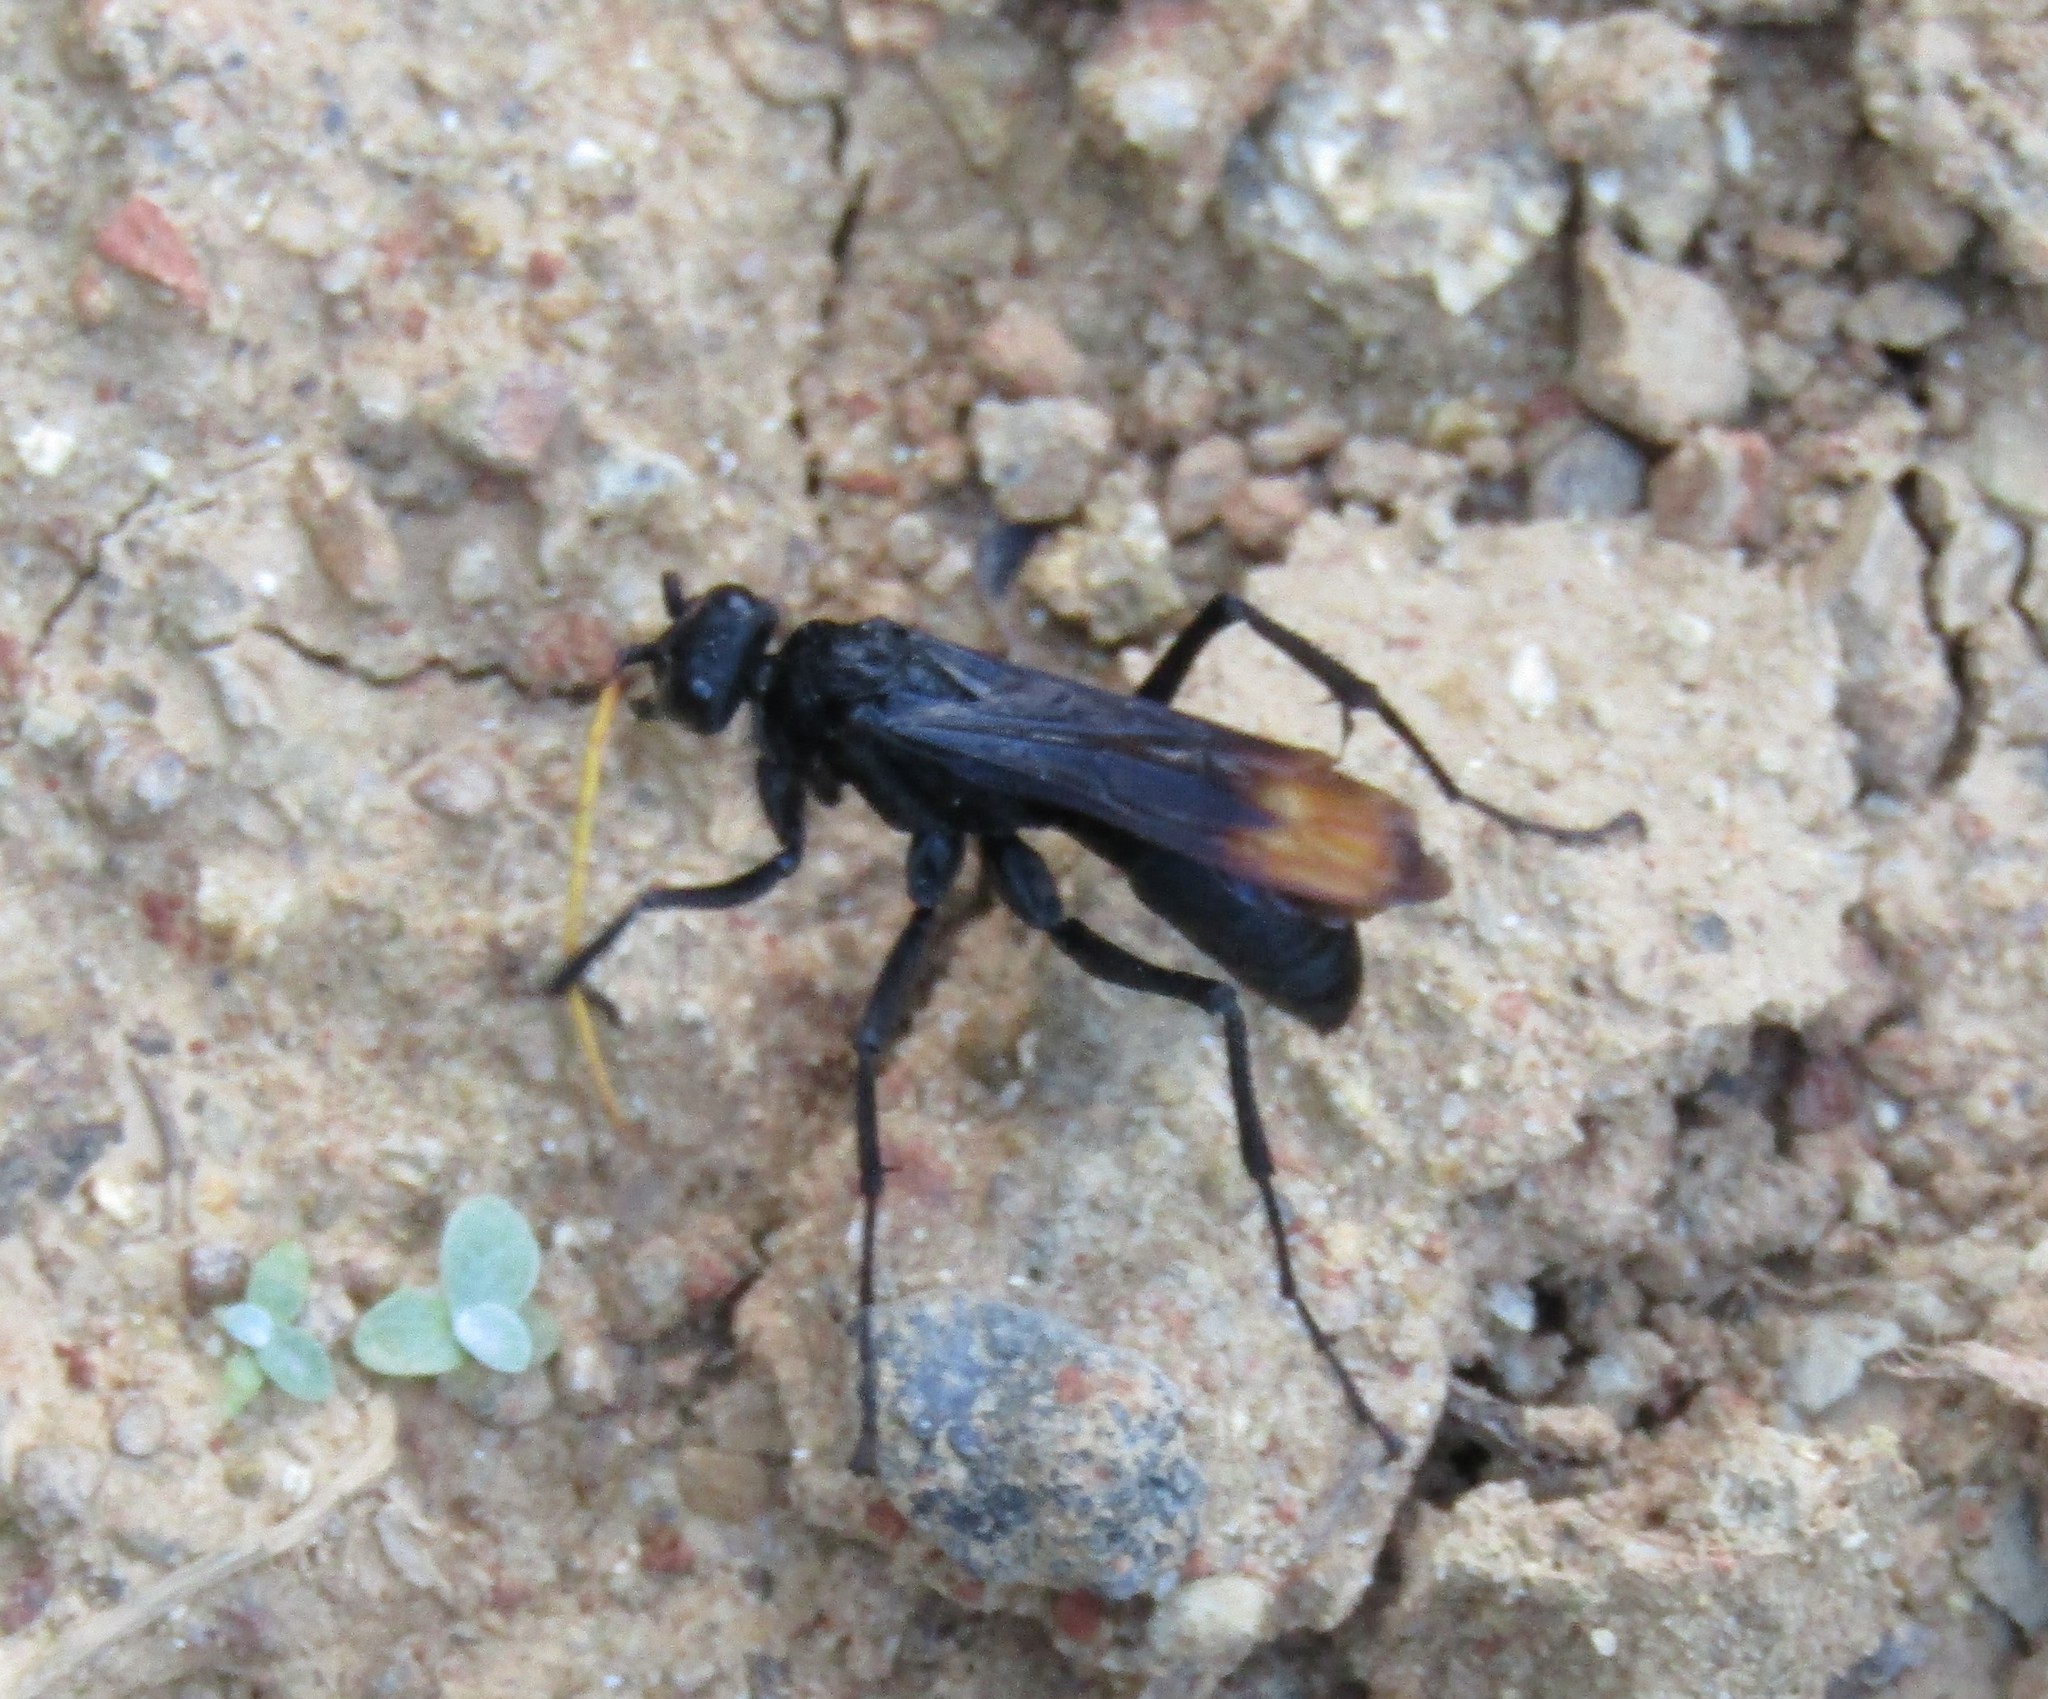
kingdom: Animalia
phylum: Arthropoda
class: Insecta
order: Hymenoptera
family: Pompilidae
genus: Entypus
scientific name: Entypus unifasciatus
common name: Eastern tawny-horned spider wasp
